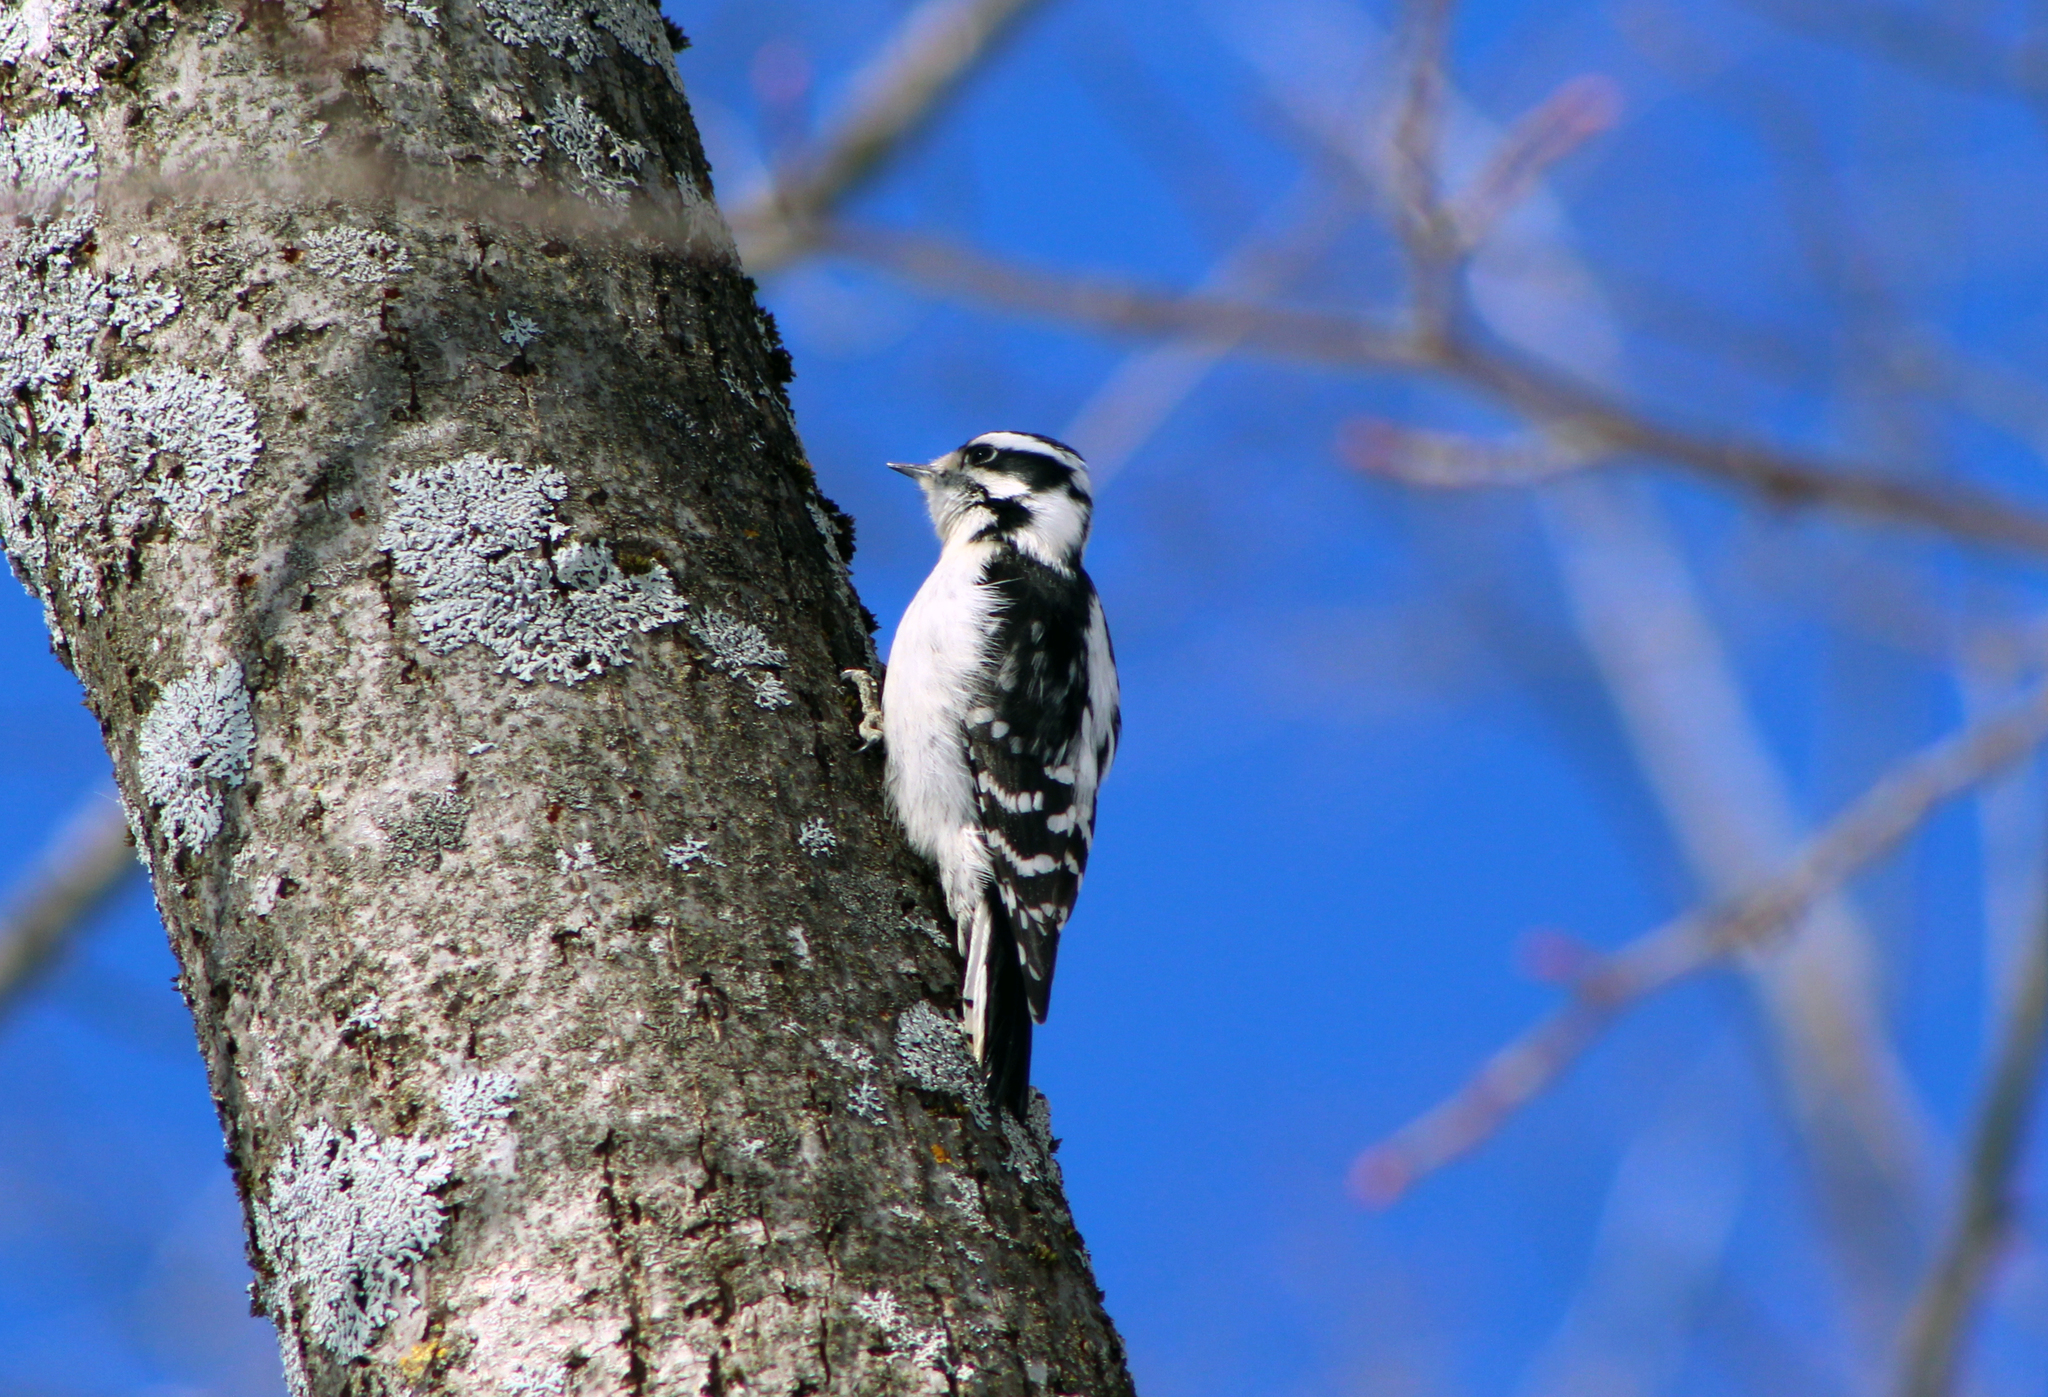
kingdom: Animalia
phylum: Chordata
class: Aves
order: Piciformes
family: Picidae
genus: Dryobates
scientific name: Dryobates pubescens
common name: Downy woodpecker
